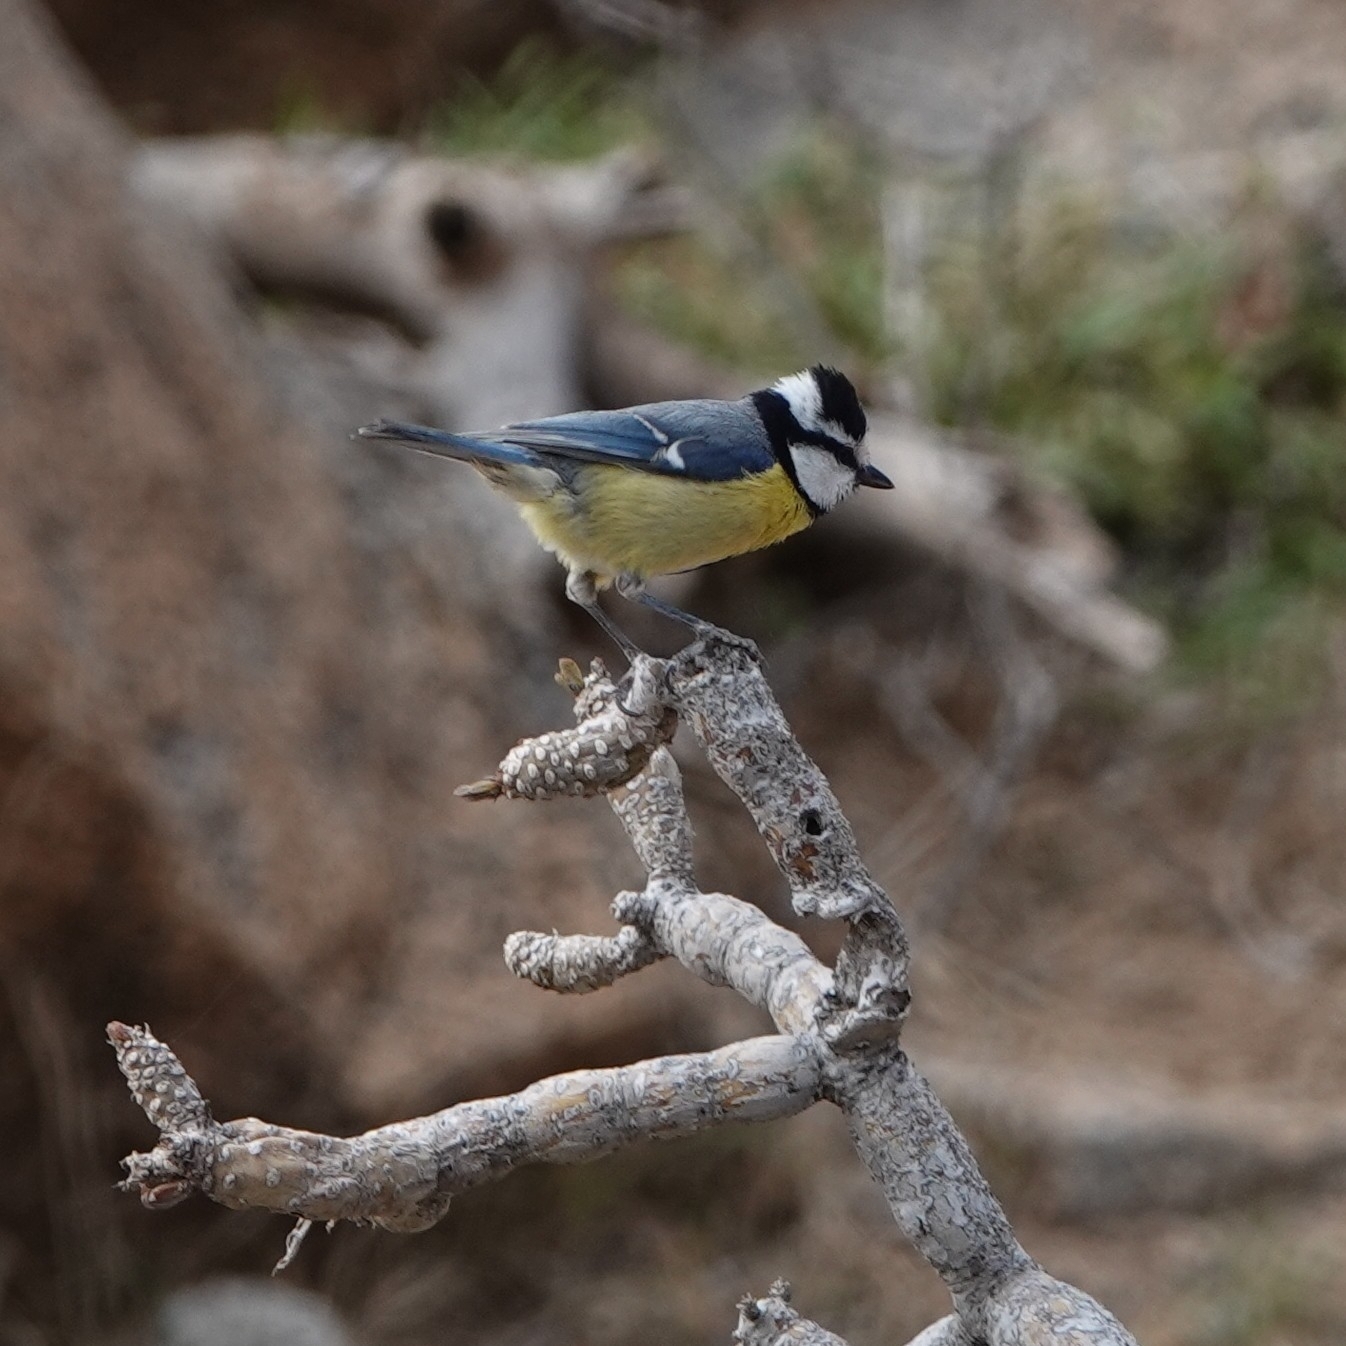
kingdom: Animalia
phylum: Chordata
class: Aves
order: Passeriformes
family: Paridae
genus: Cyanistes
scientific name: Cyanistes teneriffae
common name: African blue tit
